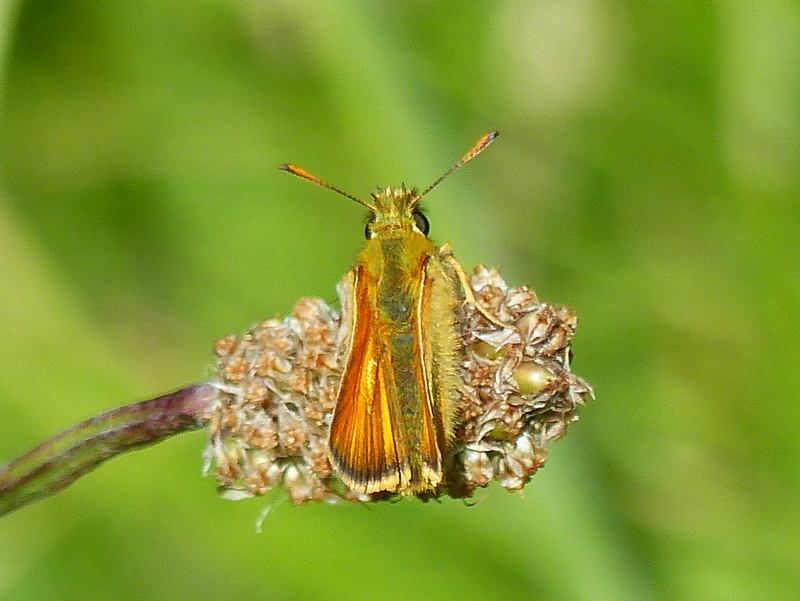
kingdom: Animalia
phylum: Arthropoda
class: Insecta
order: Lepidoptera
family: Hesperiidae
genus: Thymelicus
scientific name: Thymelicus sylvestris
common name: Small skipper
